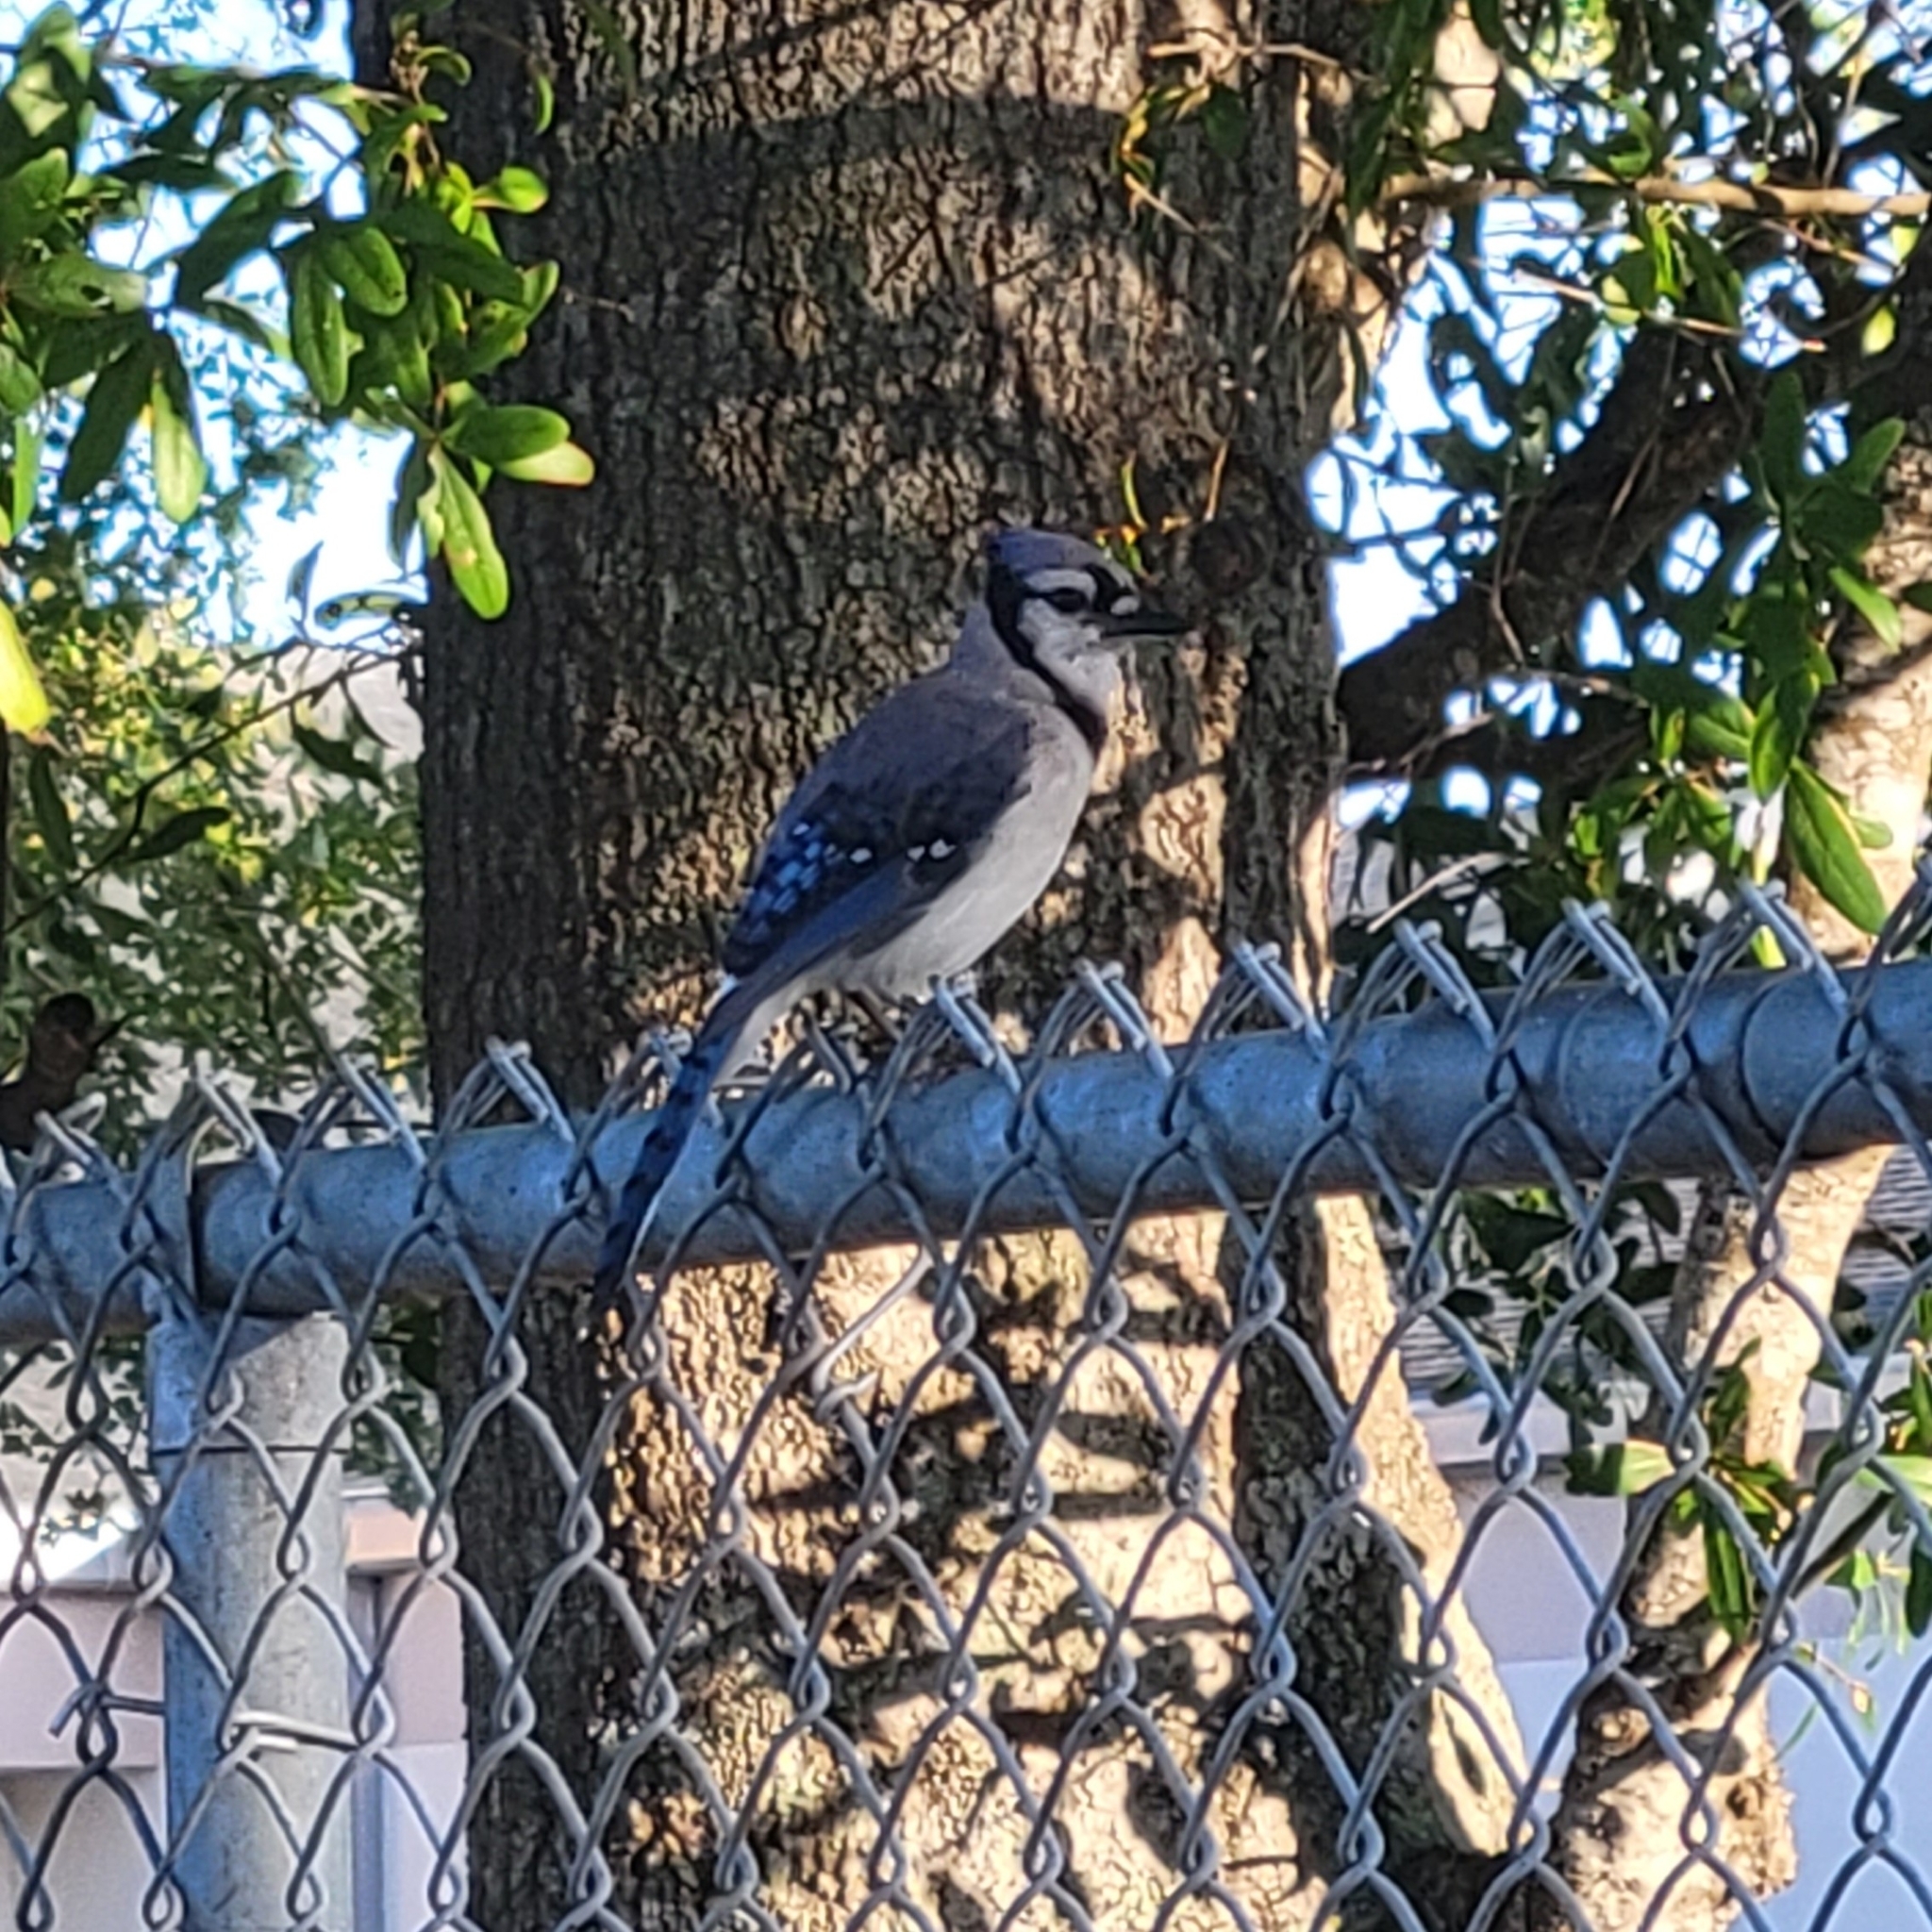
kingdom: Animalia
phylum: Chordata
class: Aves
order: Passeriformes
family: Corvidae
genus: Cyanocitta
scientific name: Cyanocitta cristata
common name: Blue jay
